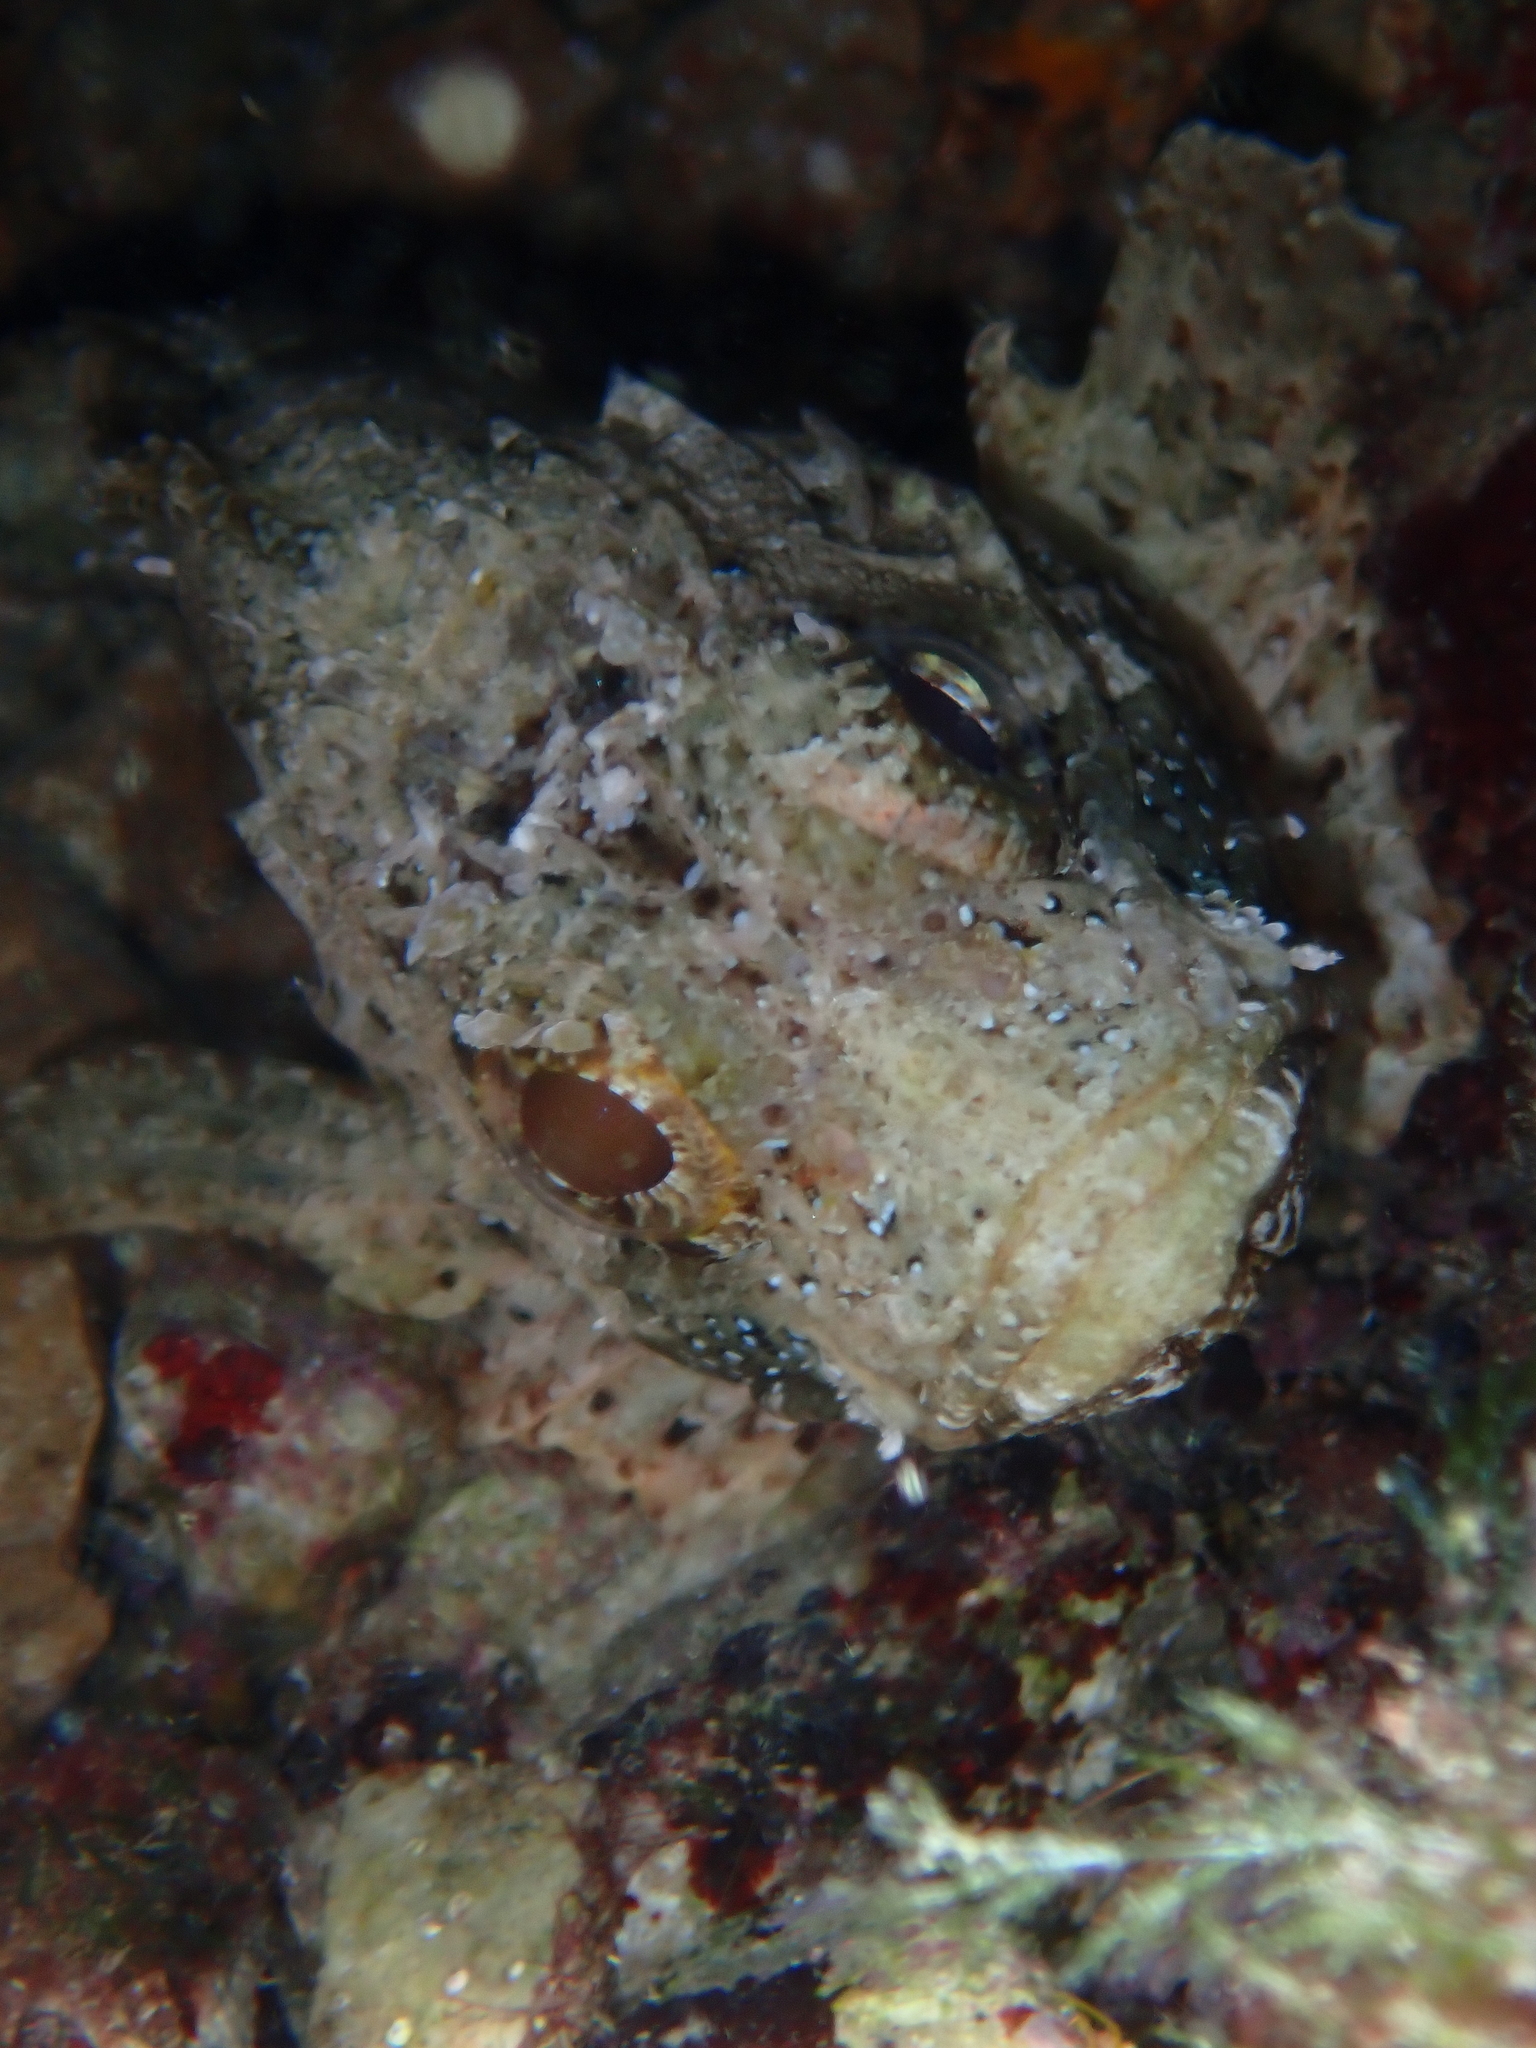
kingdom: Animalia
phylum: Chordata
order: Scorpaeniformes
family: Scorpaenidae
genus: Scorpaena
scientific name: Scorpaena porcus
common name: Black scorpionfish
